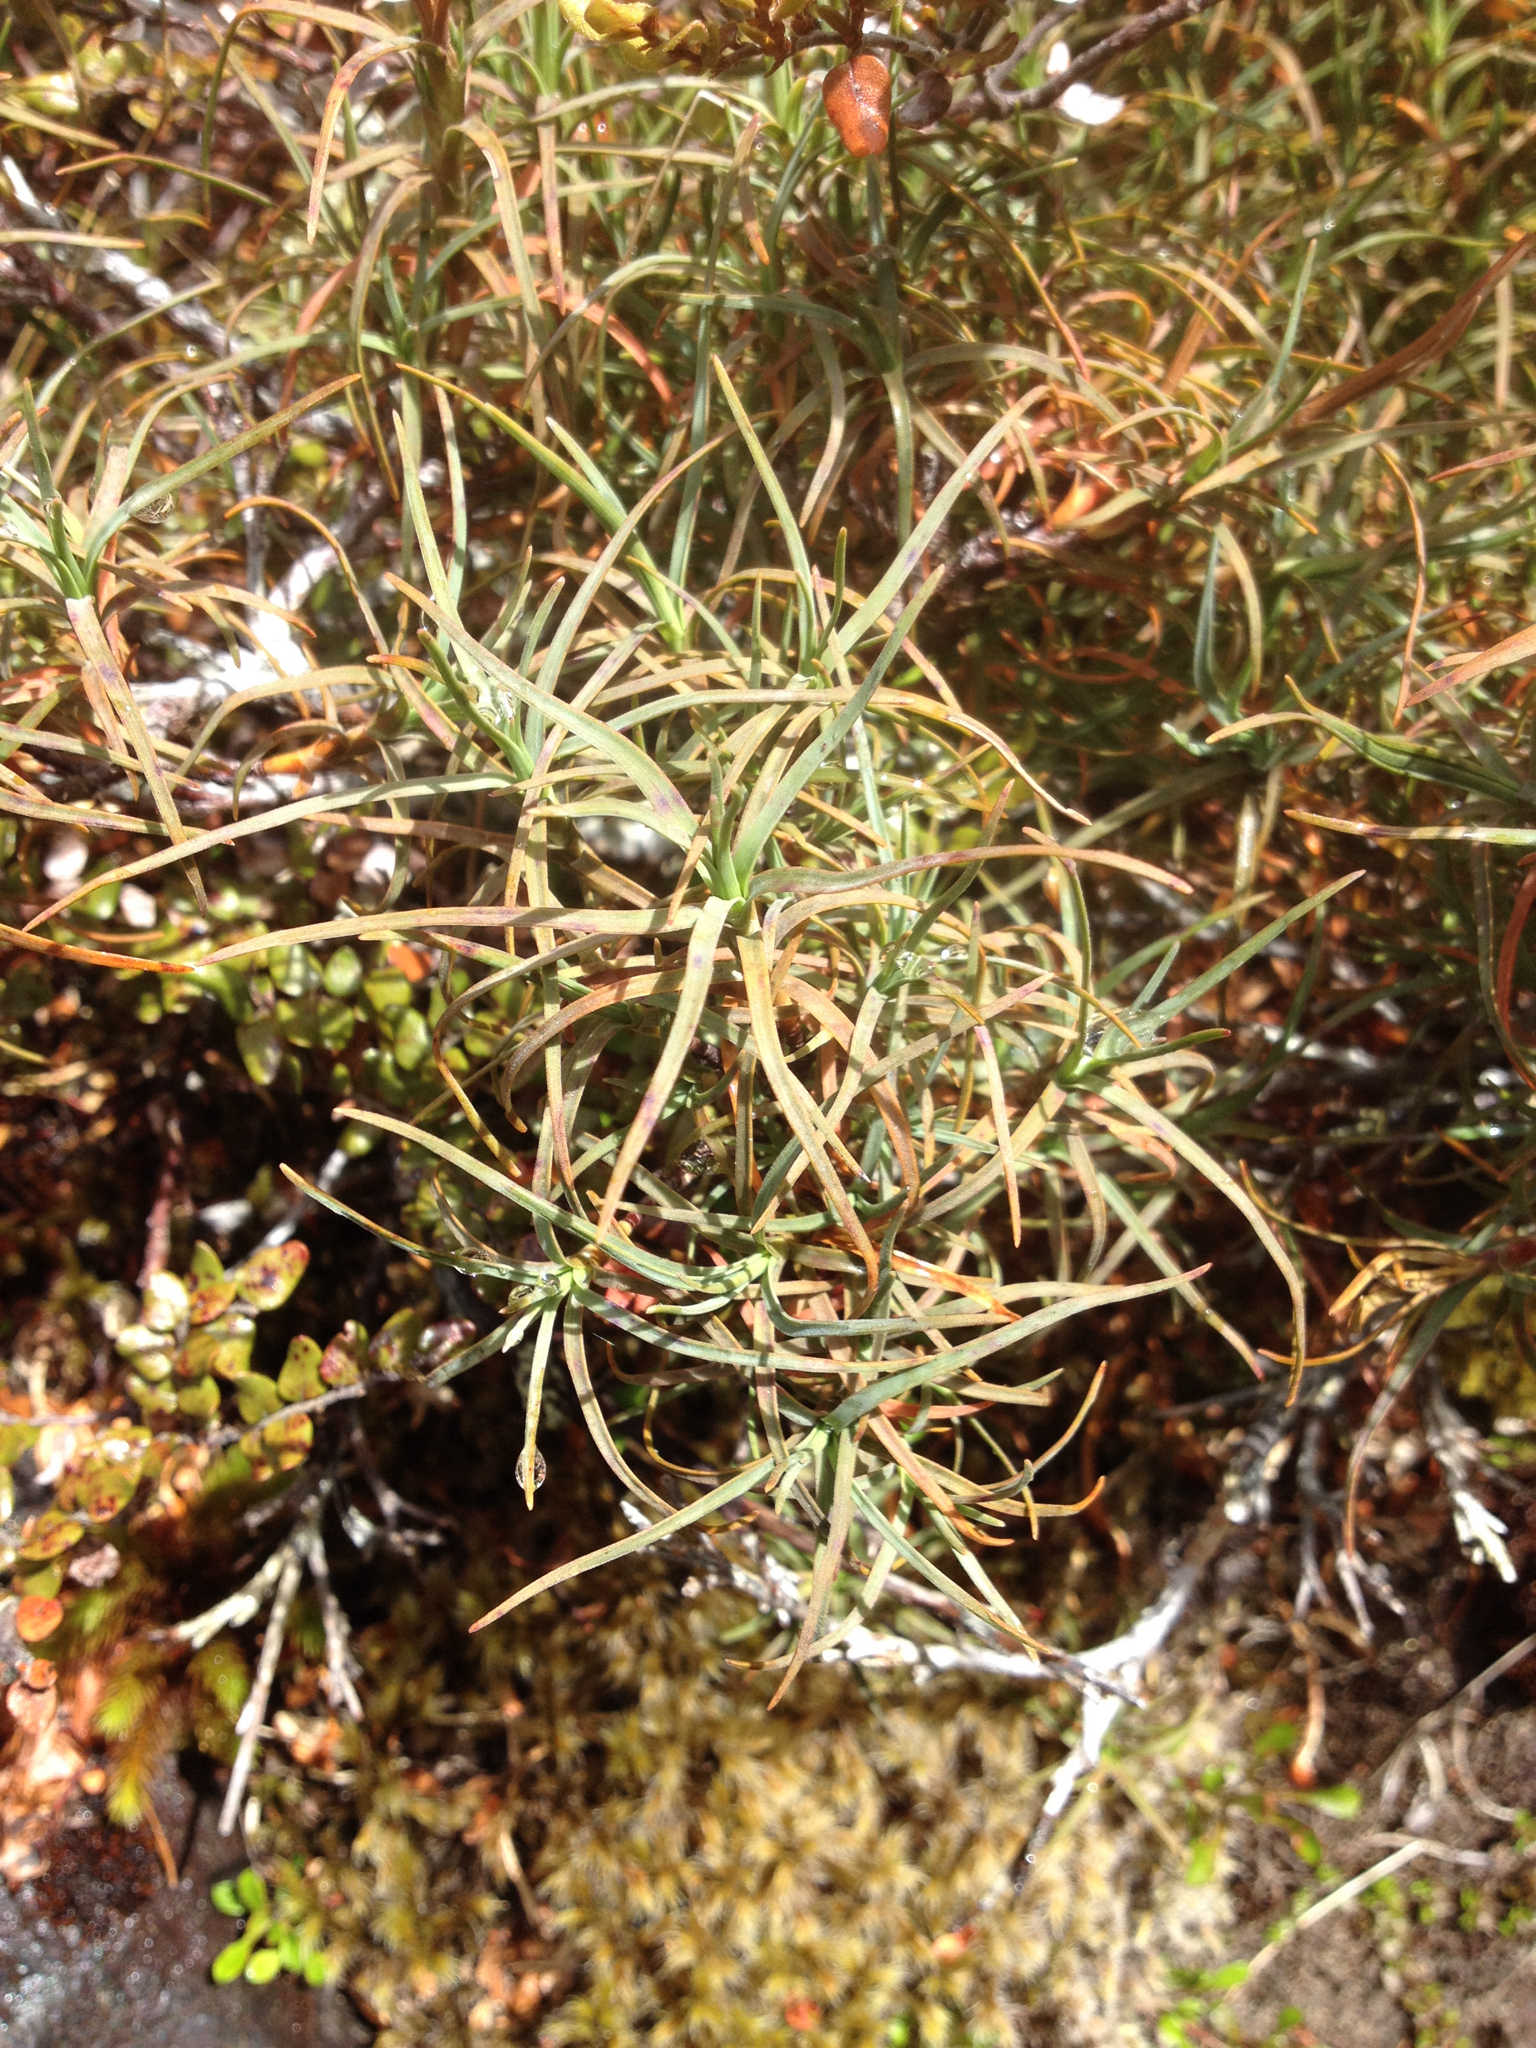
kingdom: Plantae
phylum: Tracheophyta
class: Magnoliopsida
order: Ericales
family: Ericaceae
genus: Dracophyllum
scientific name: Dracophyllum recurvum
